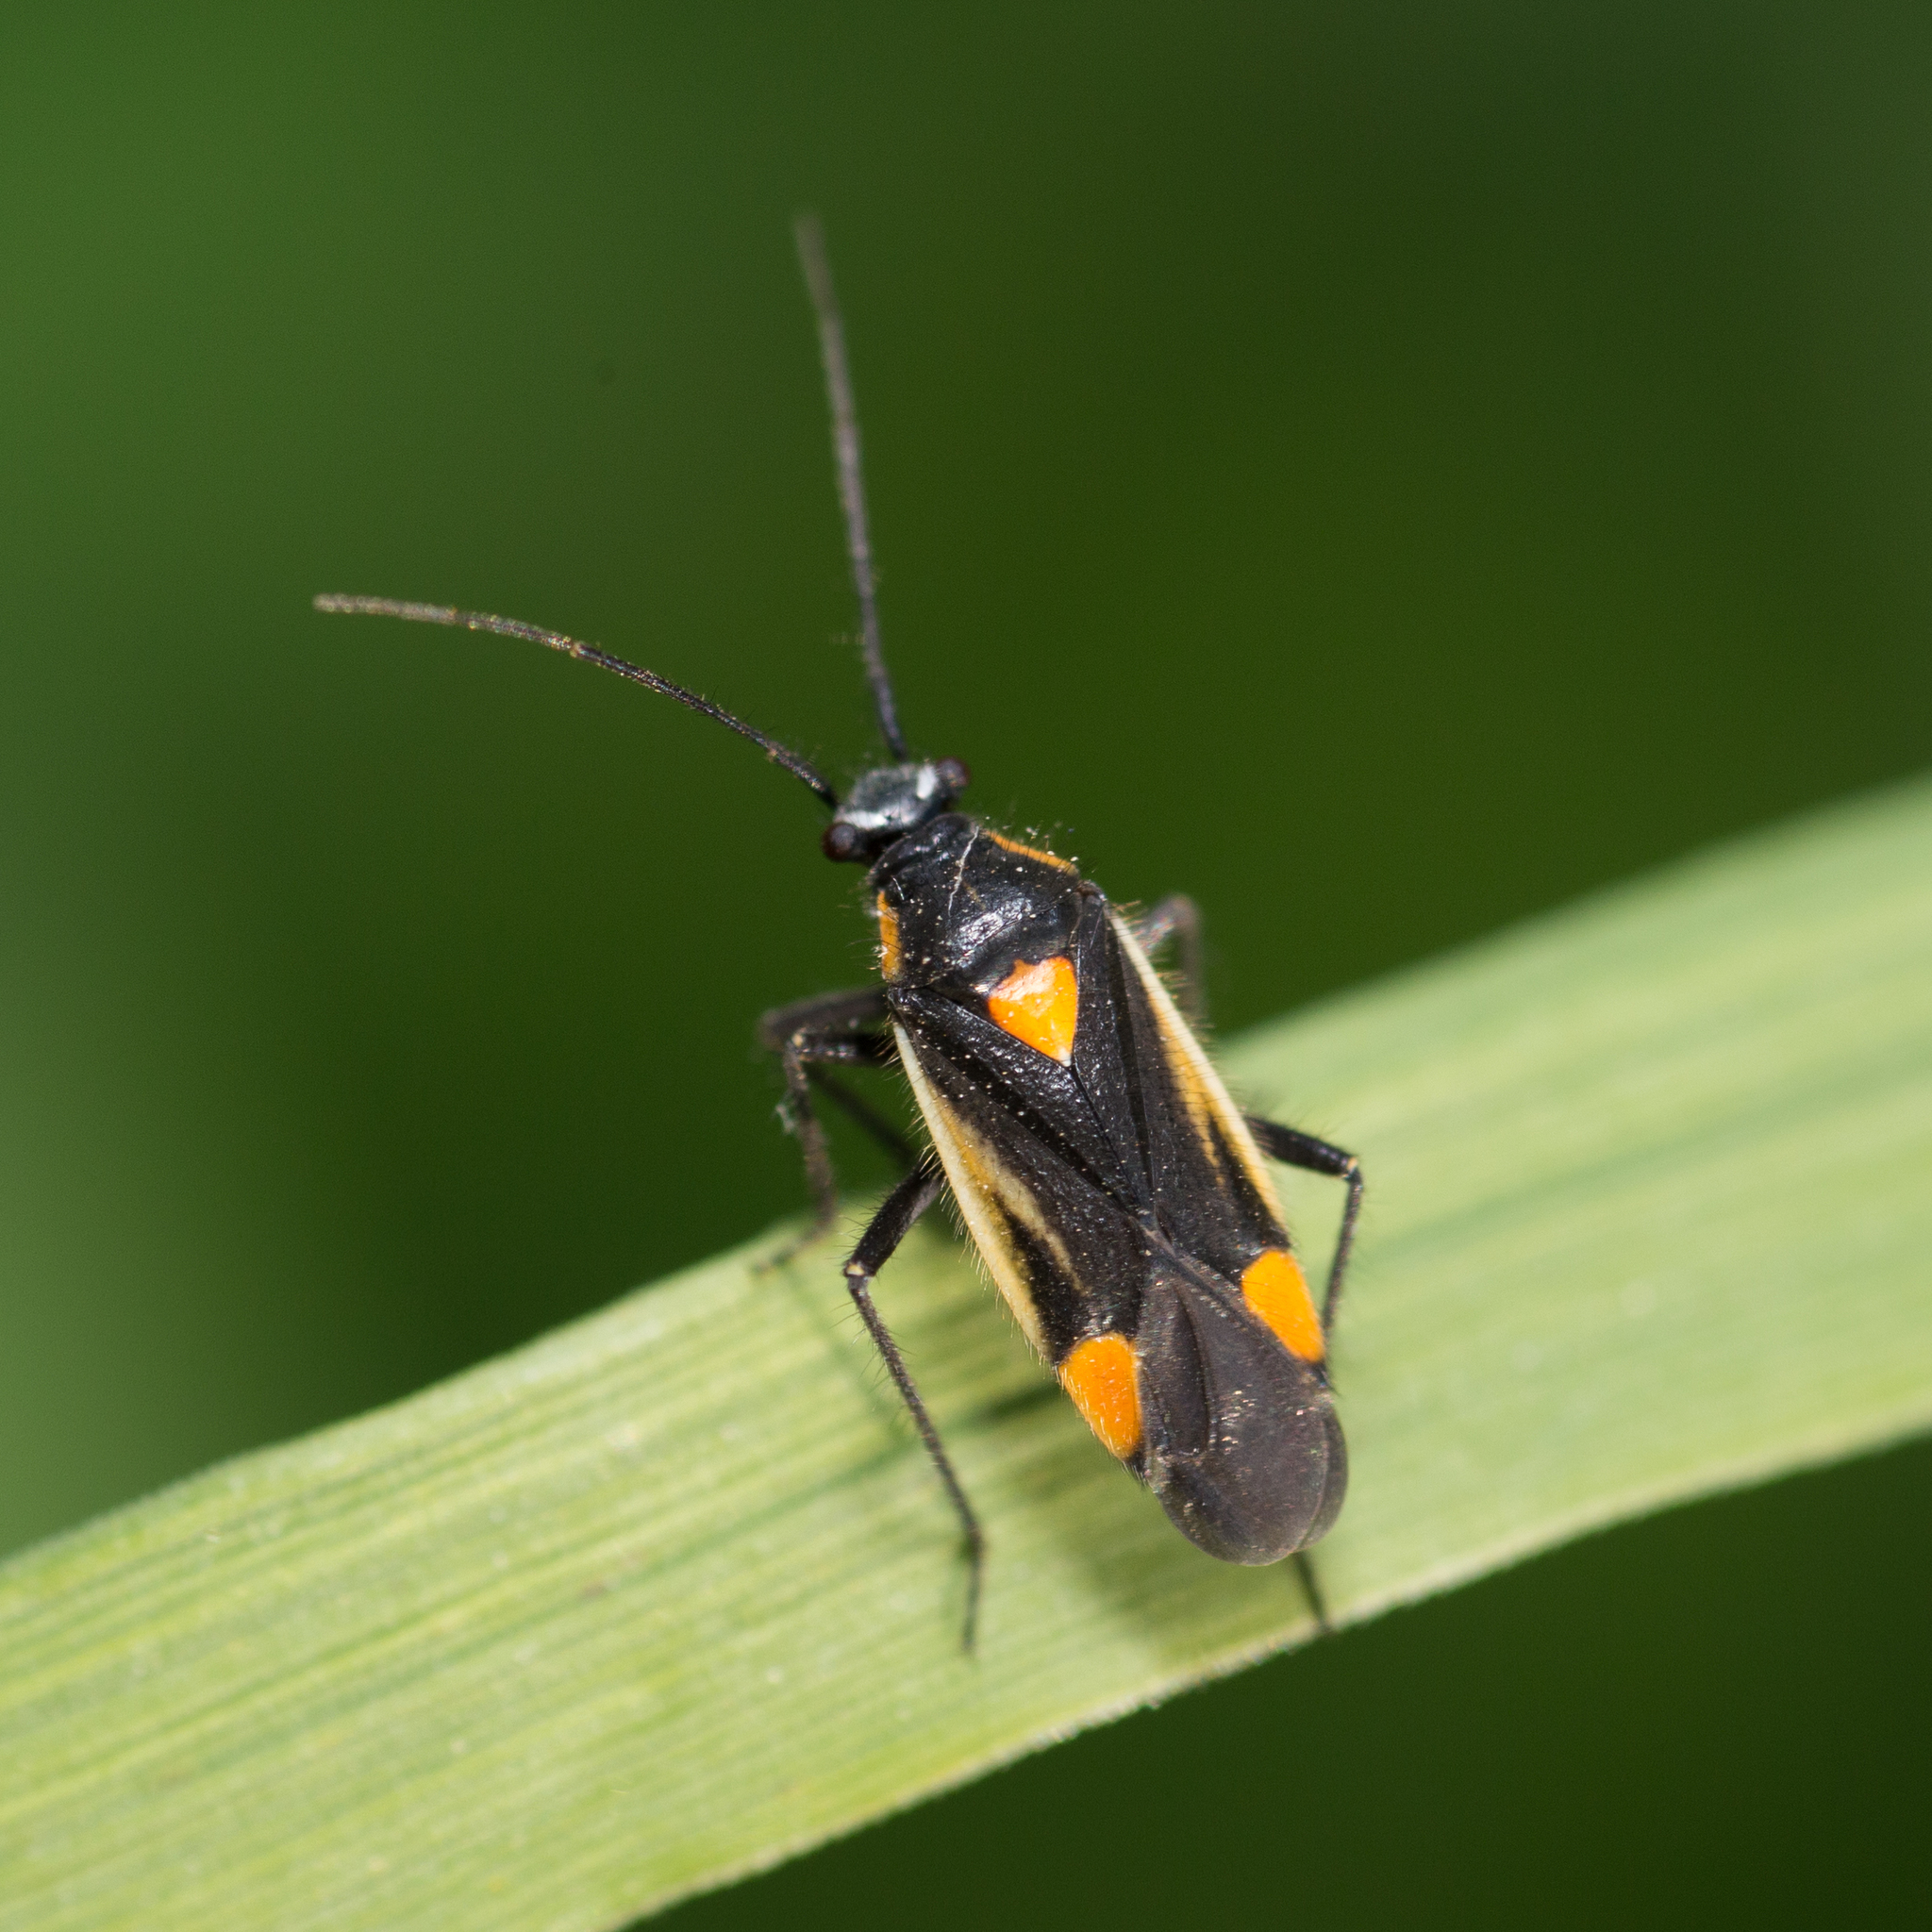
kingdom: Animalia
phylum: Arthropoda
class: Insecta
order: Hemiptera
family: Miridae
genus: Capsodes
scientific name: Capsodes gothicus
